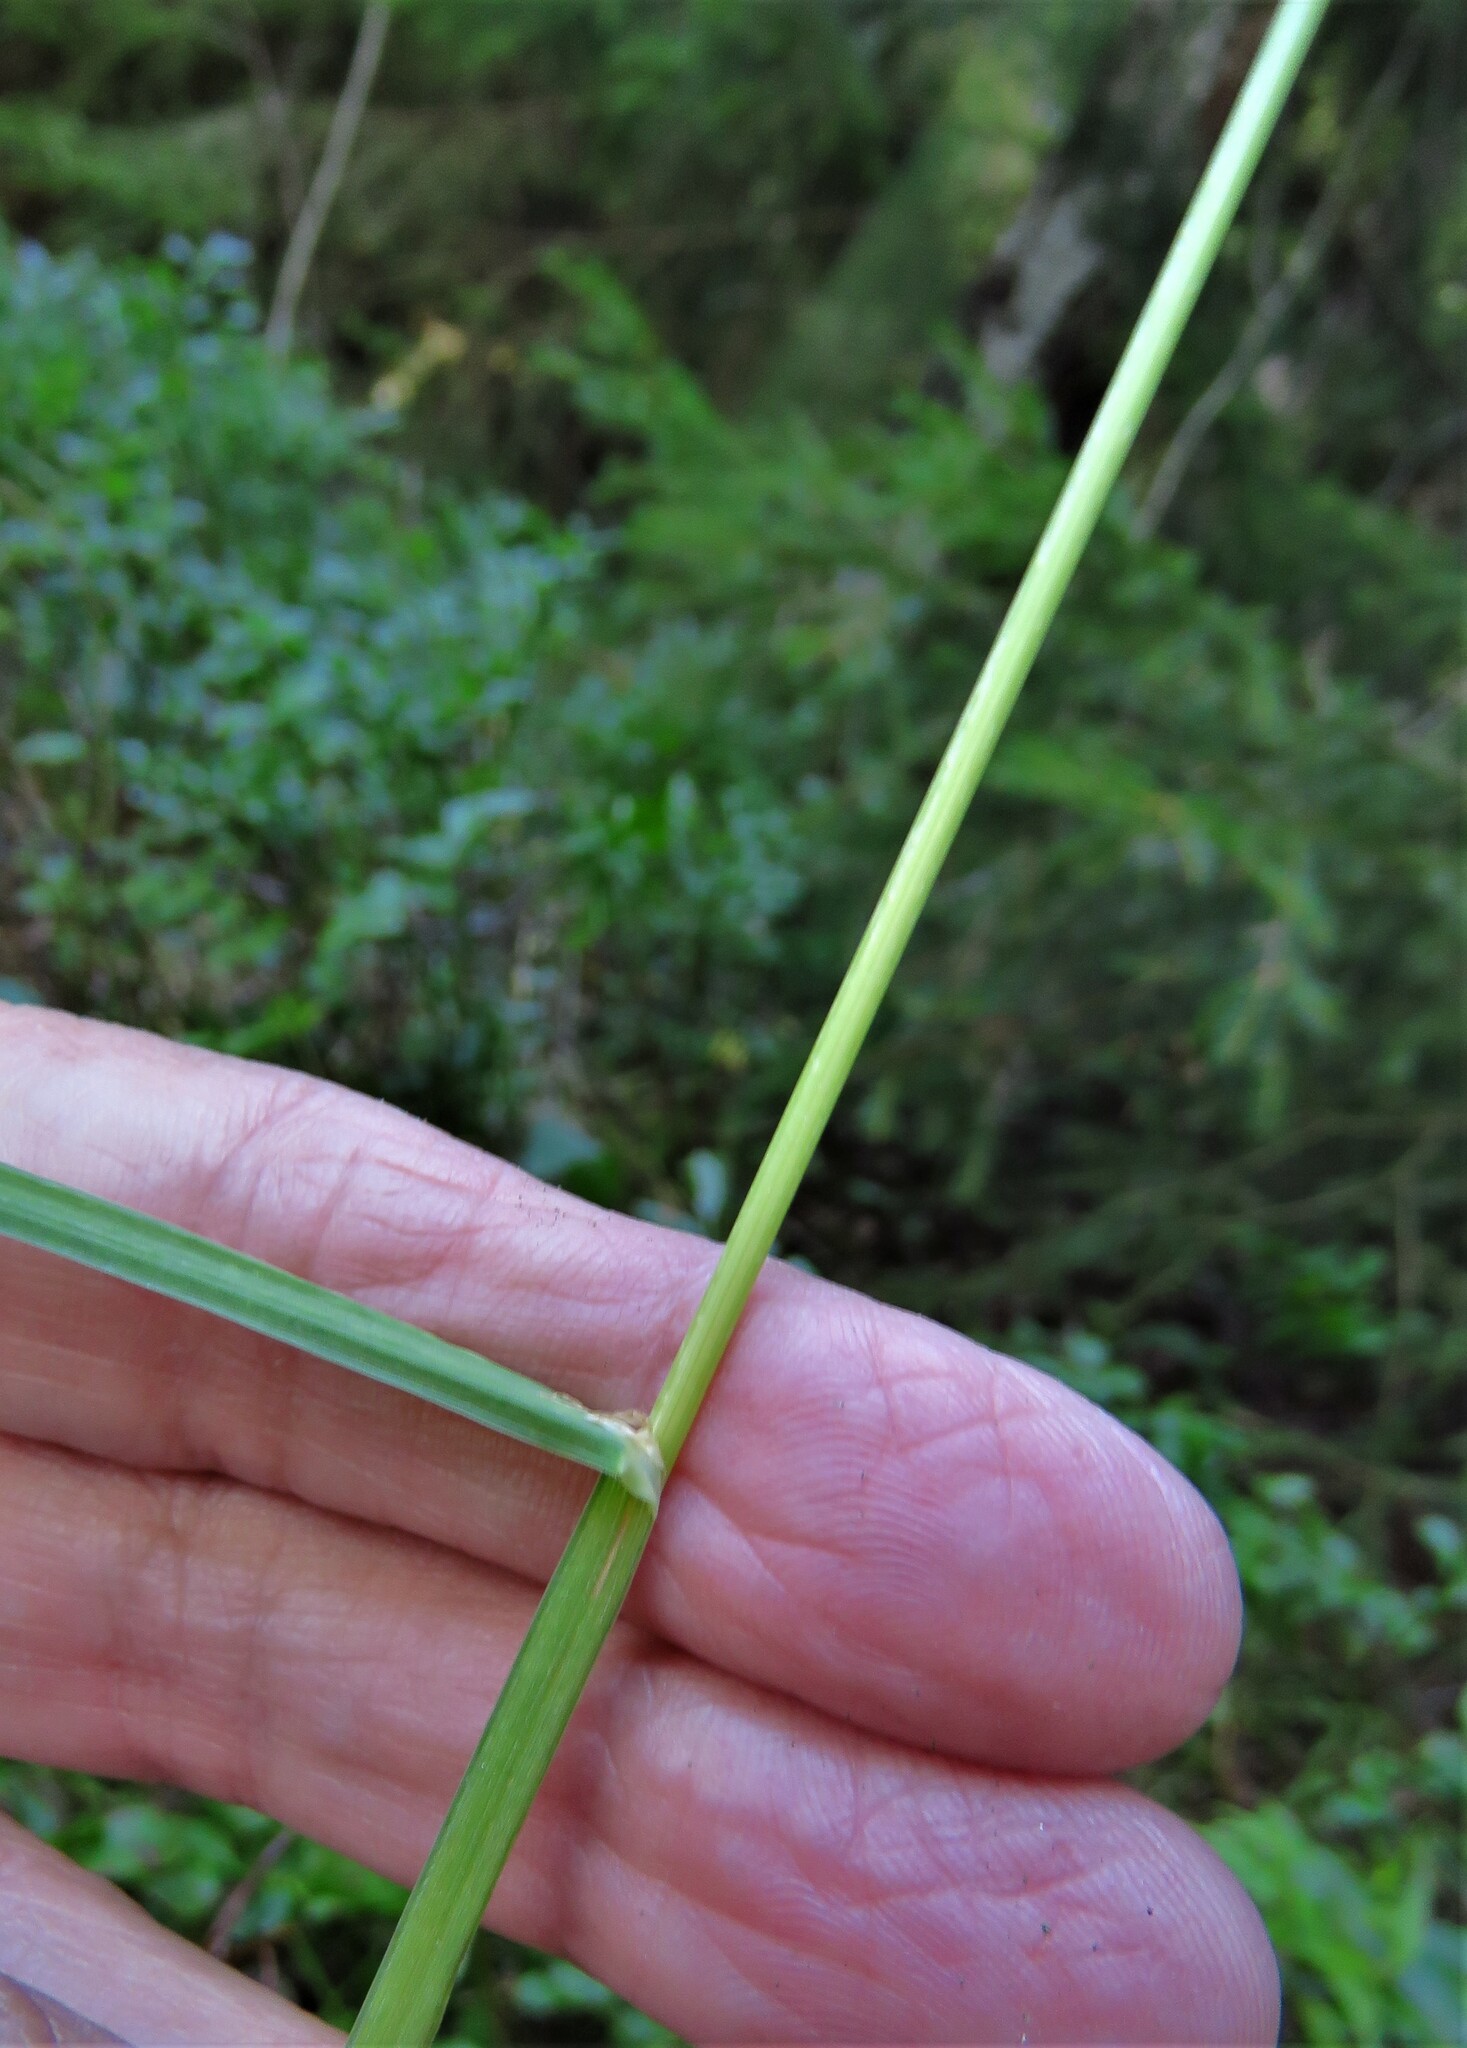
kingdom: Plantae
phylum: Tracheophyta
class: Liliopsida
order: Poales
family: Poaceae
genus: Dactylis
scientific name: Dactylis glomerata
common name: Orchardgrass
